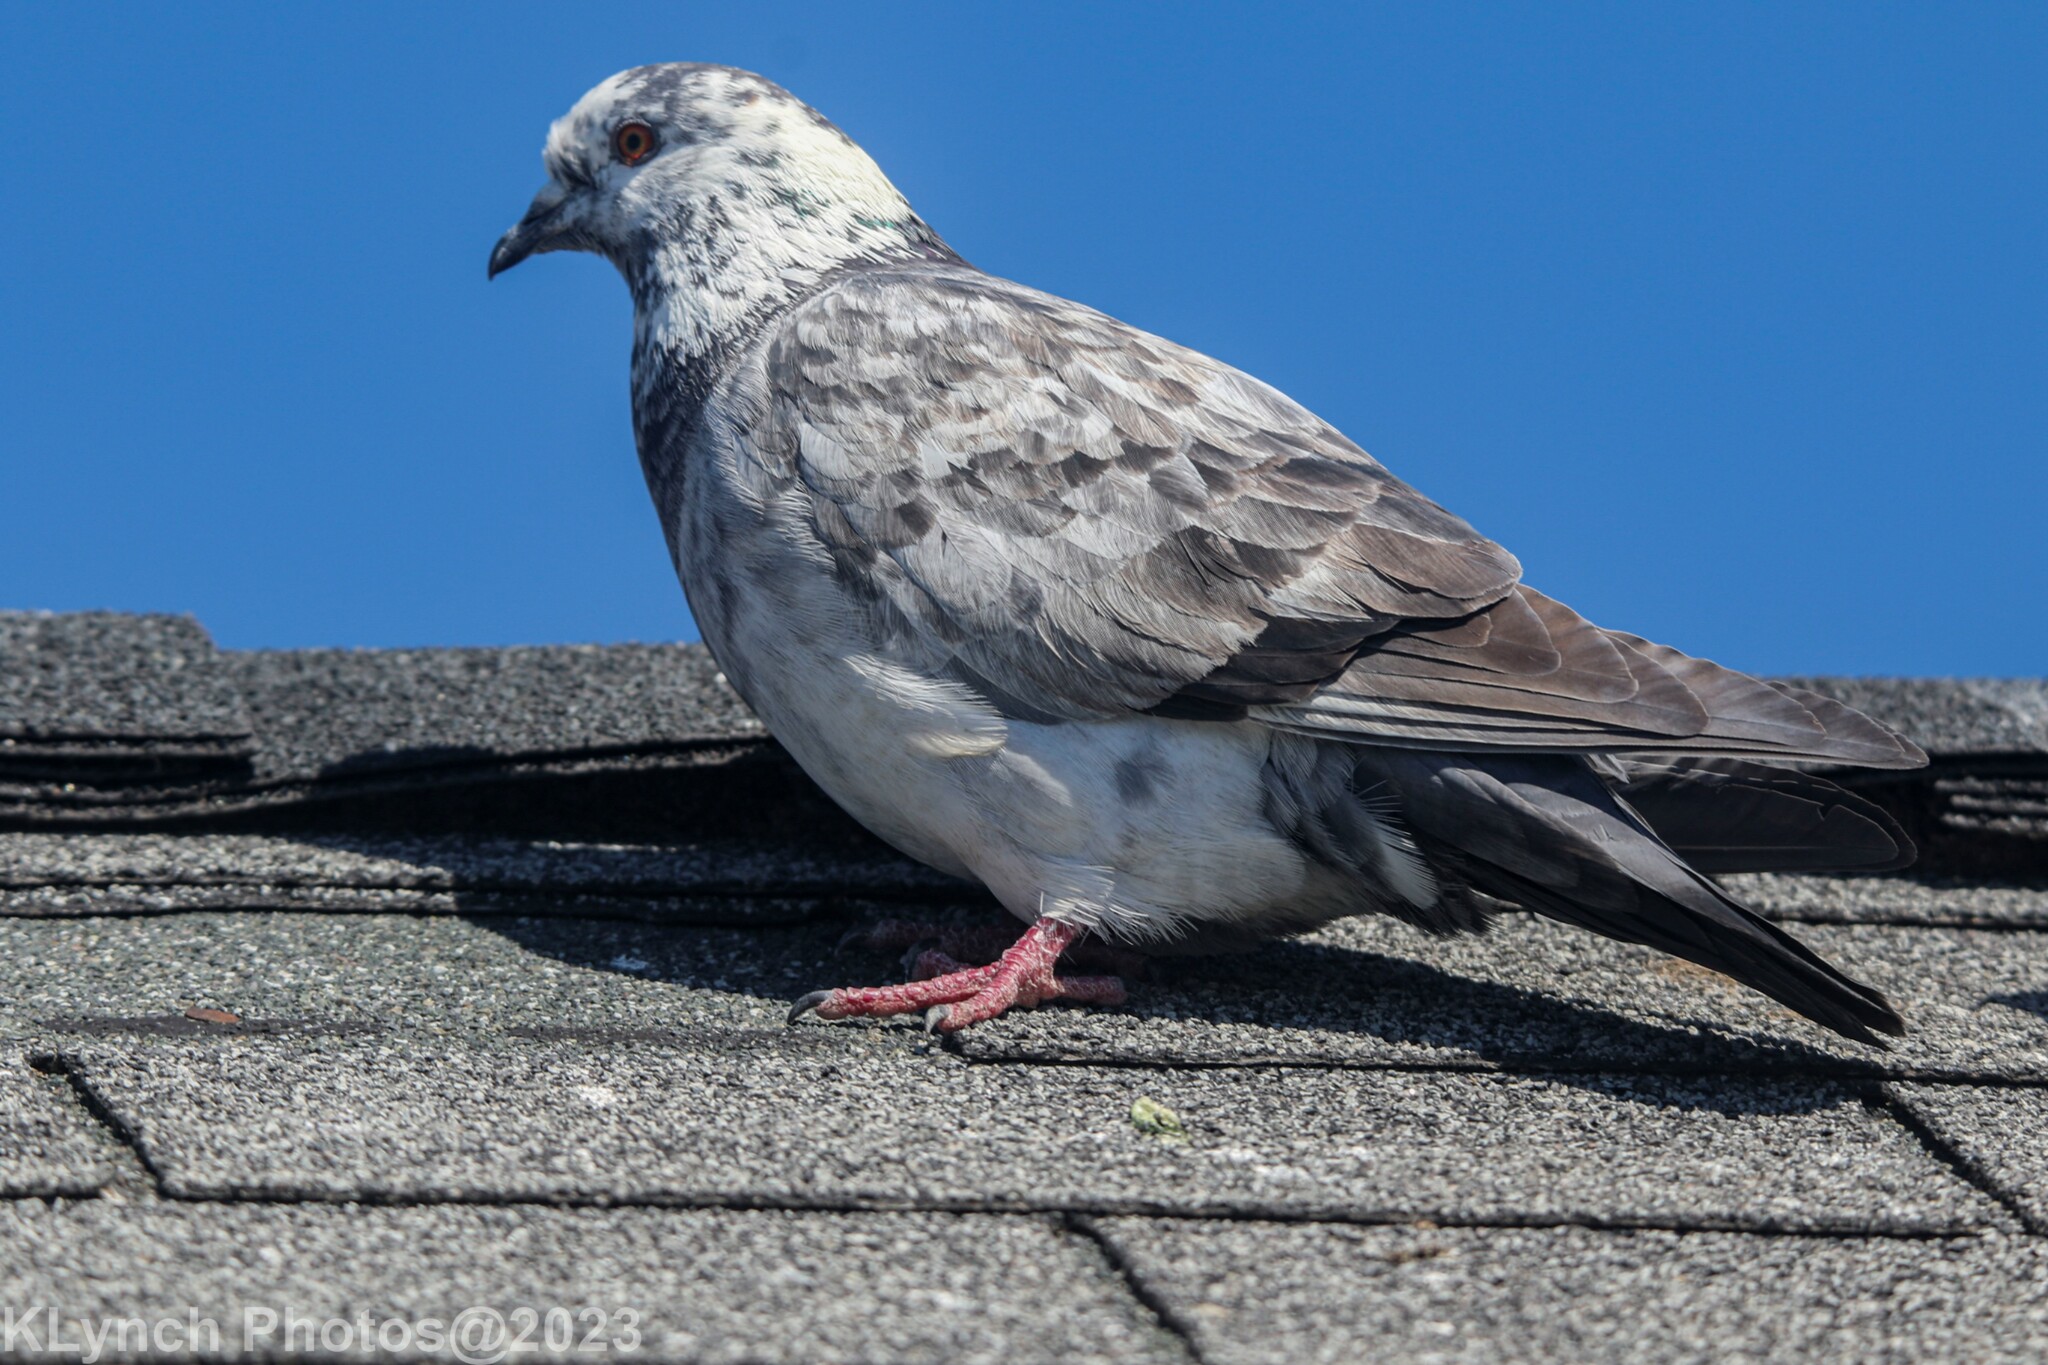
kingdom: Animalia
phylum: Chordata
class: Aves
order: Columbiformes
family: Columbidae
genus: Columba
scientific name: Columba livia
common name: Rock pigeon
